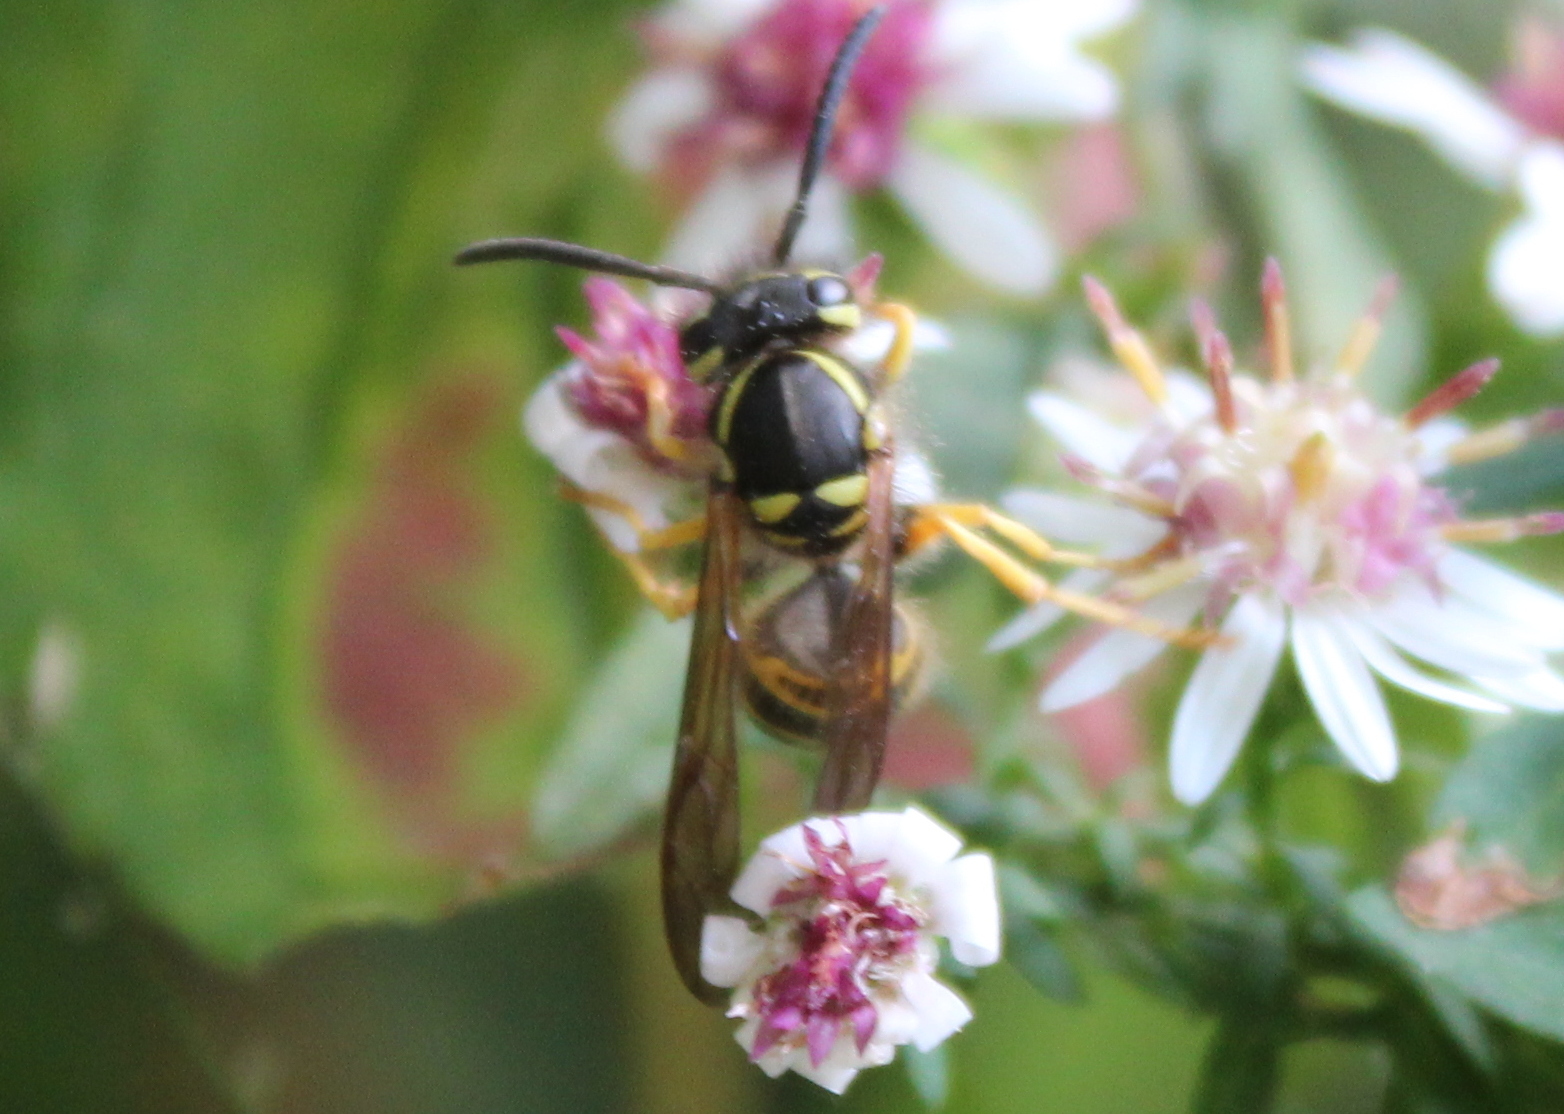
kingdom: Animalia
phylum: Arthropoda
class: Insecta
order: Hymenoptera
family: Vespidae
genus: Vespula
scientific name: Vespula maculifrons
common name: Eastern yellowjacket
